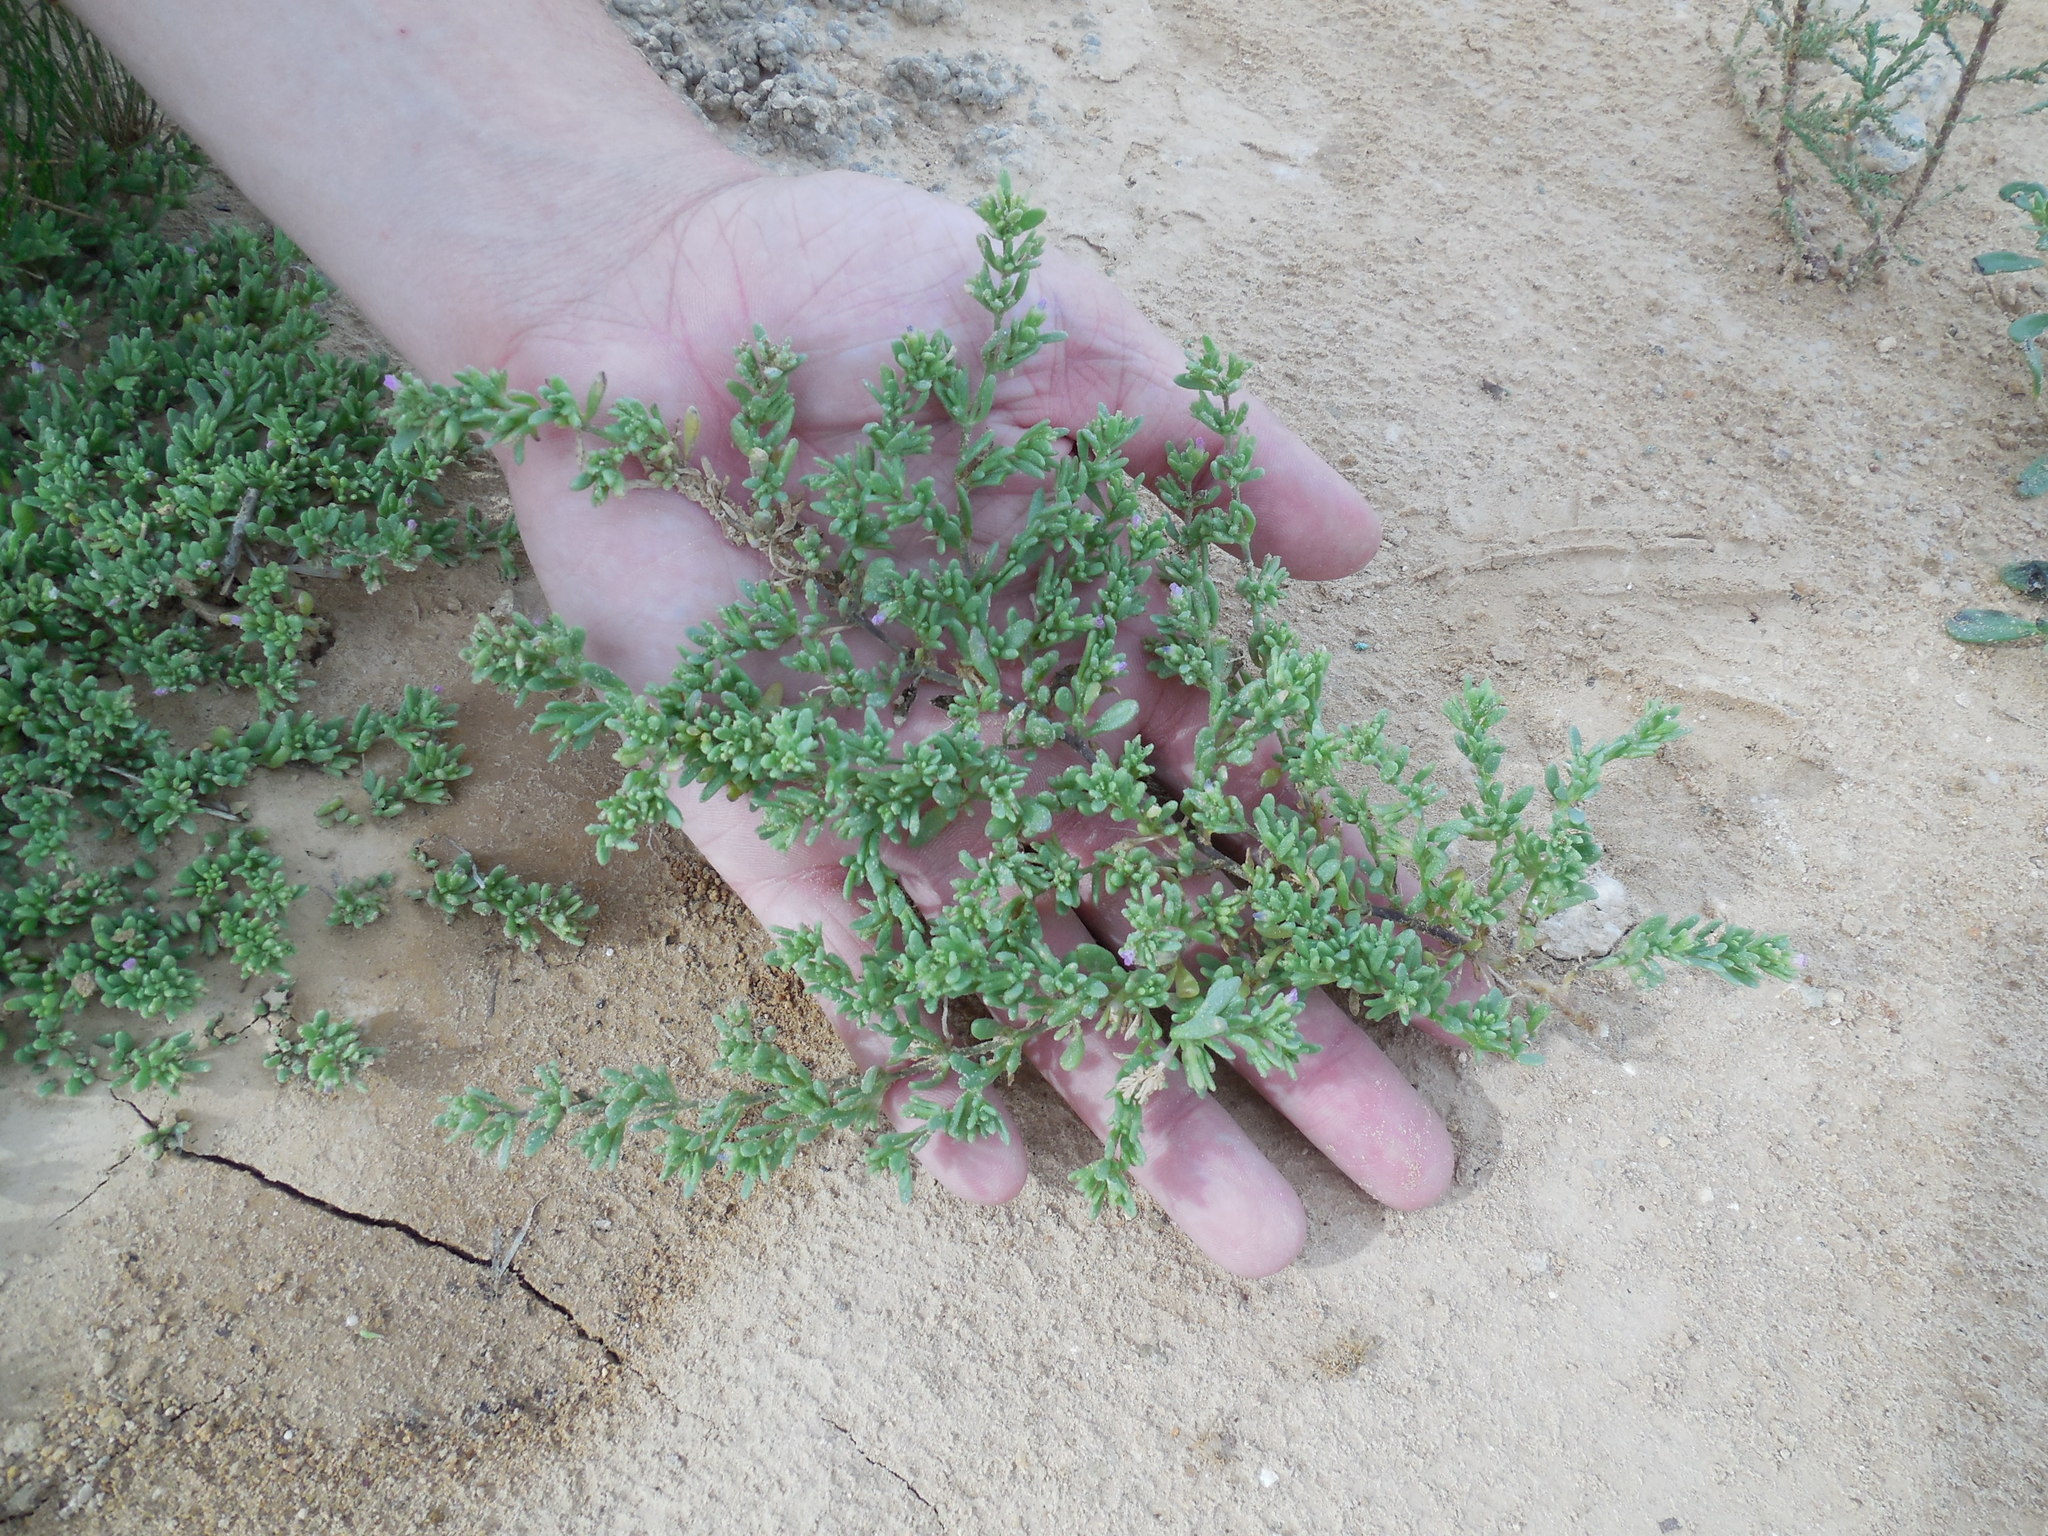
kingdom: Plantae
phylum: Tracheophyta
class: Magnoliopsida
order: Caryophyllales
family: Aizoaceae
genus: Sesuvium
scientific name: Sesuvium revolutifolium
